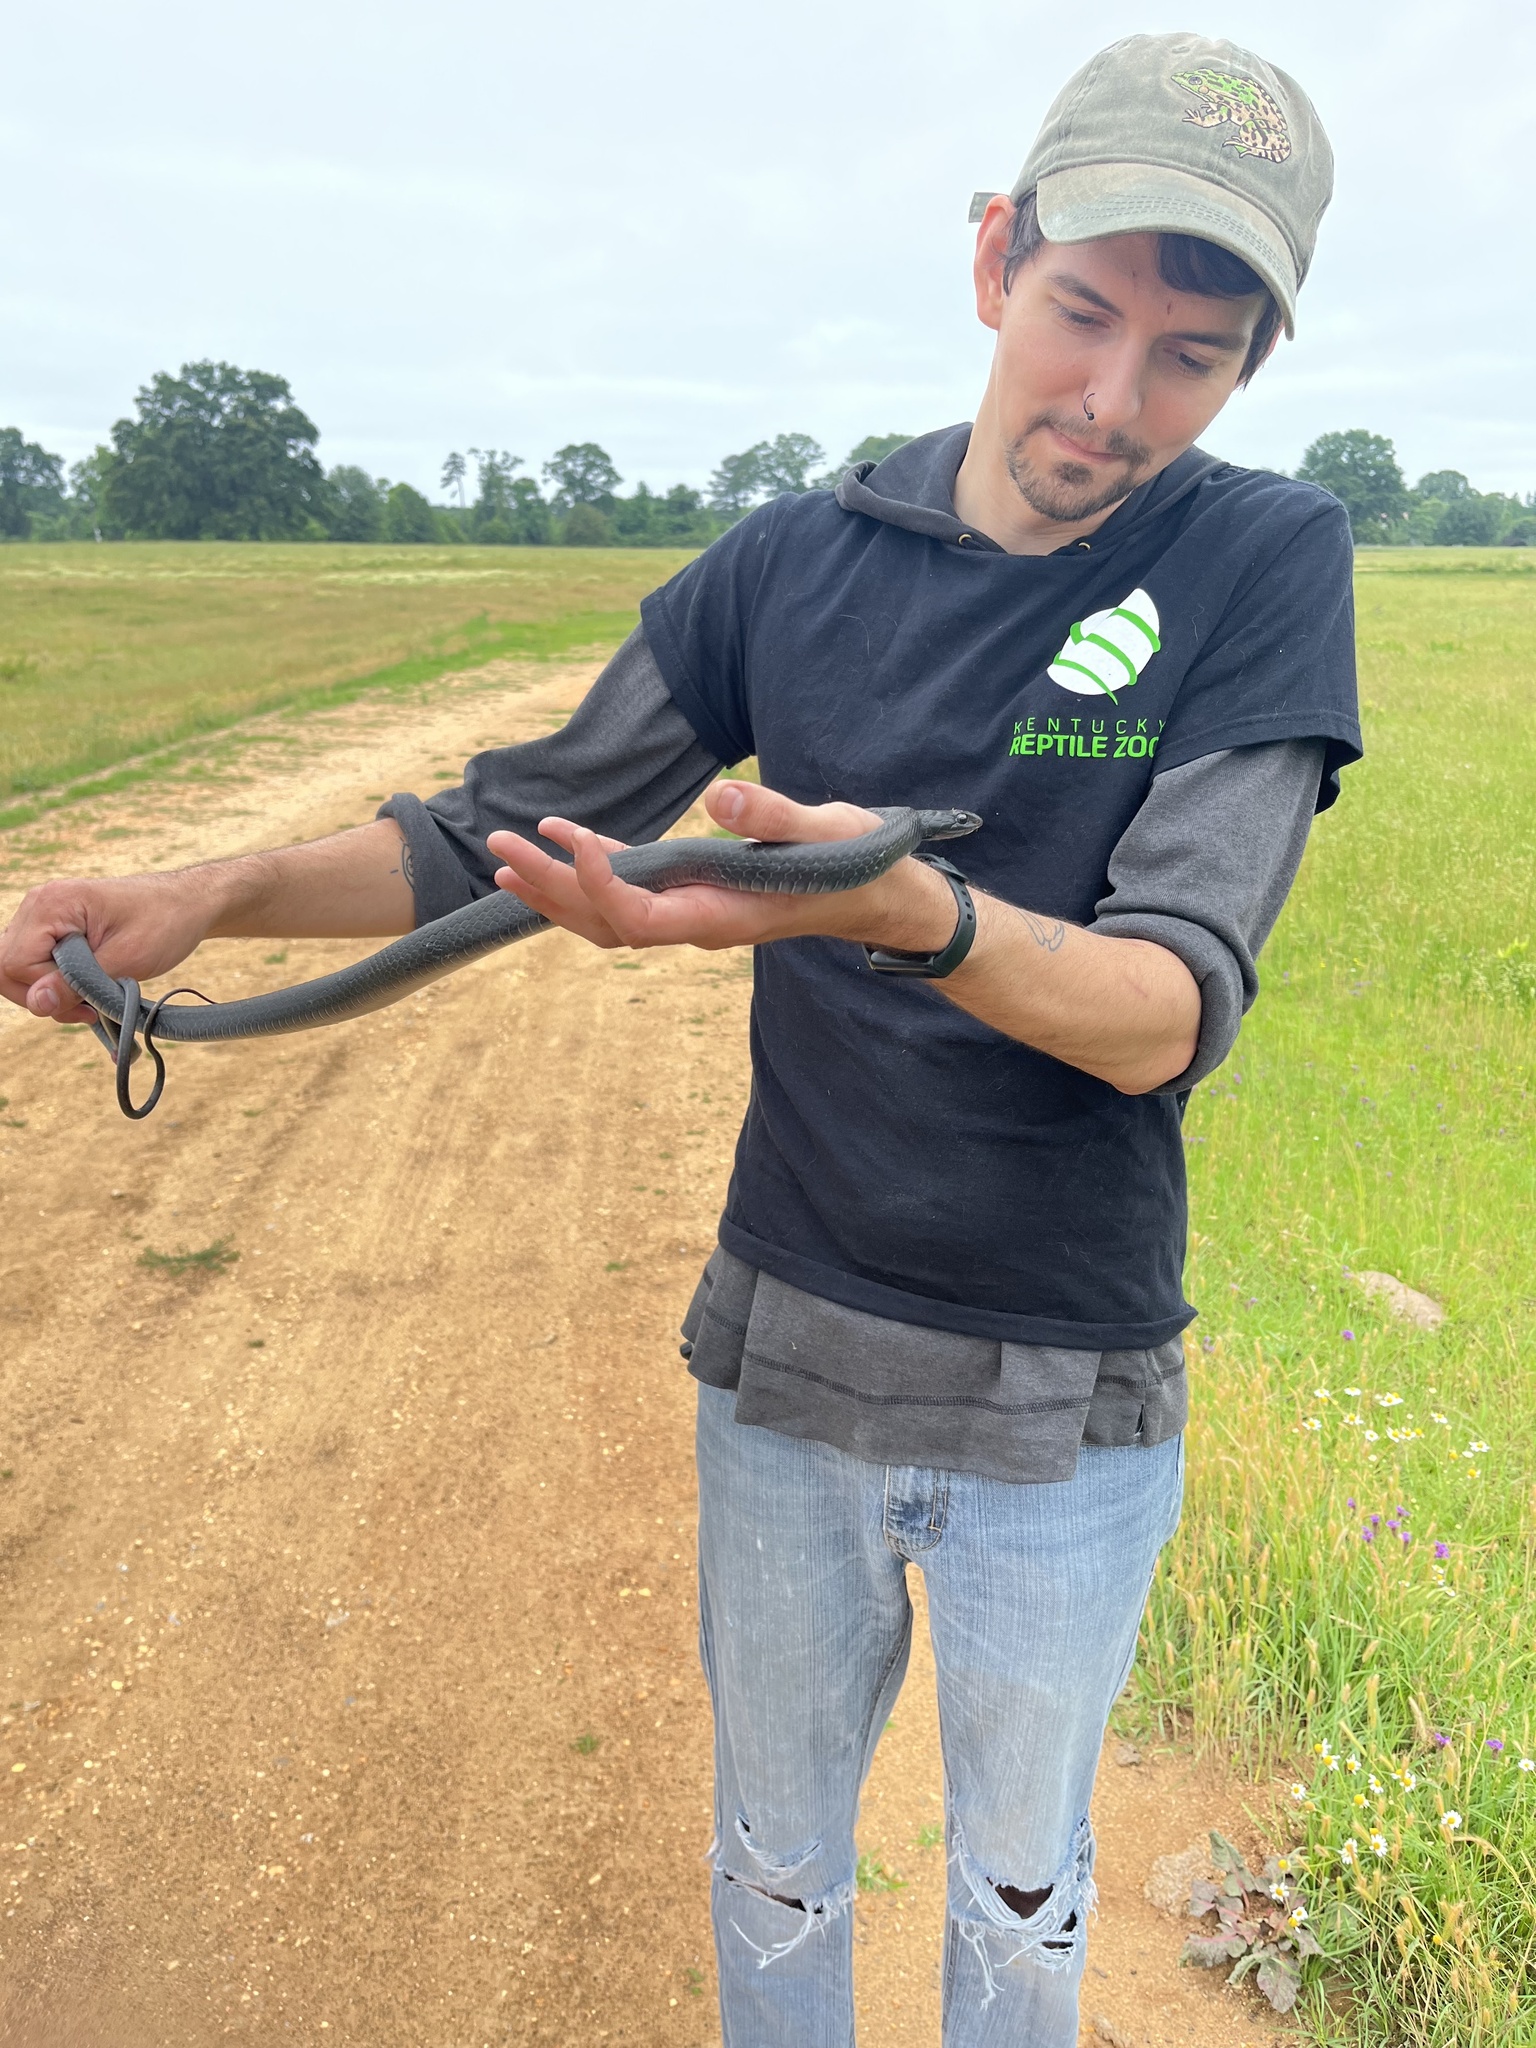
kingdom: Animalia
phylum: Chordata
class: Squamata
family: Colubridae
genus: Coluber
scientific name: Coluber constrictor
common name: Eastern racer
